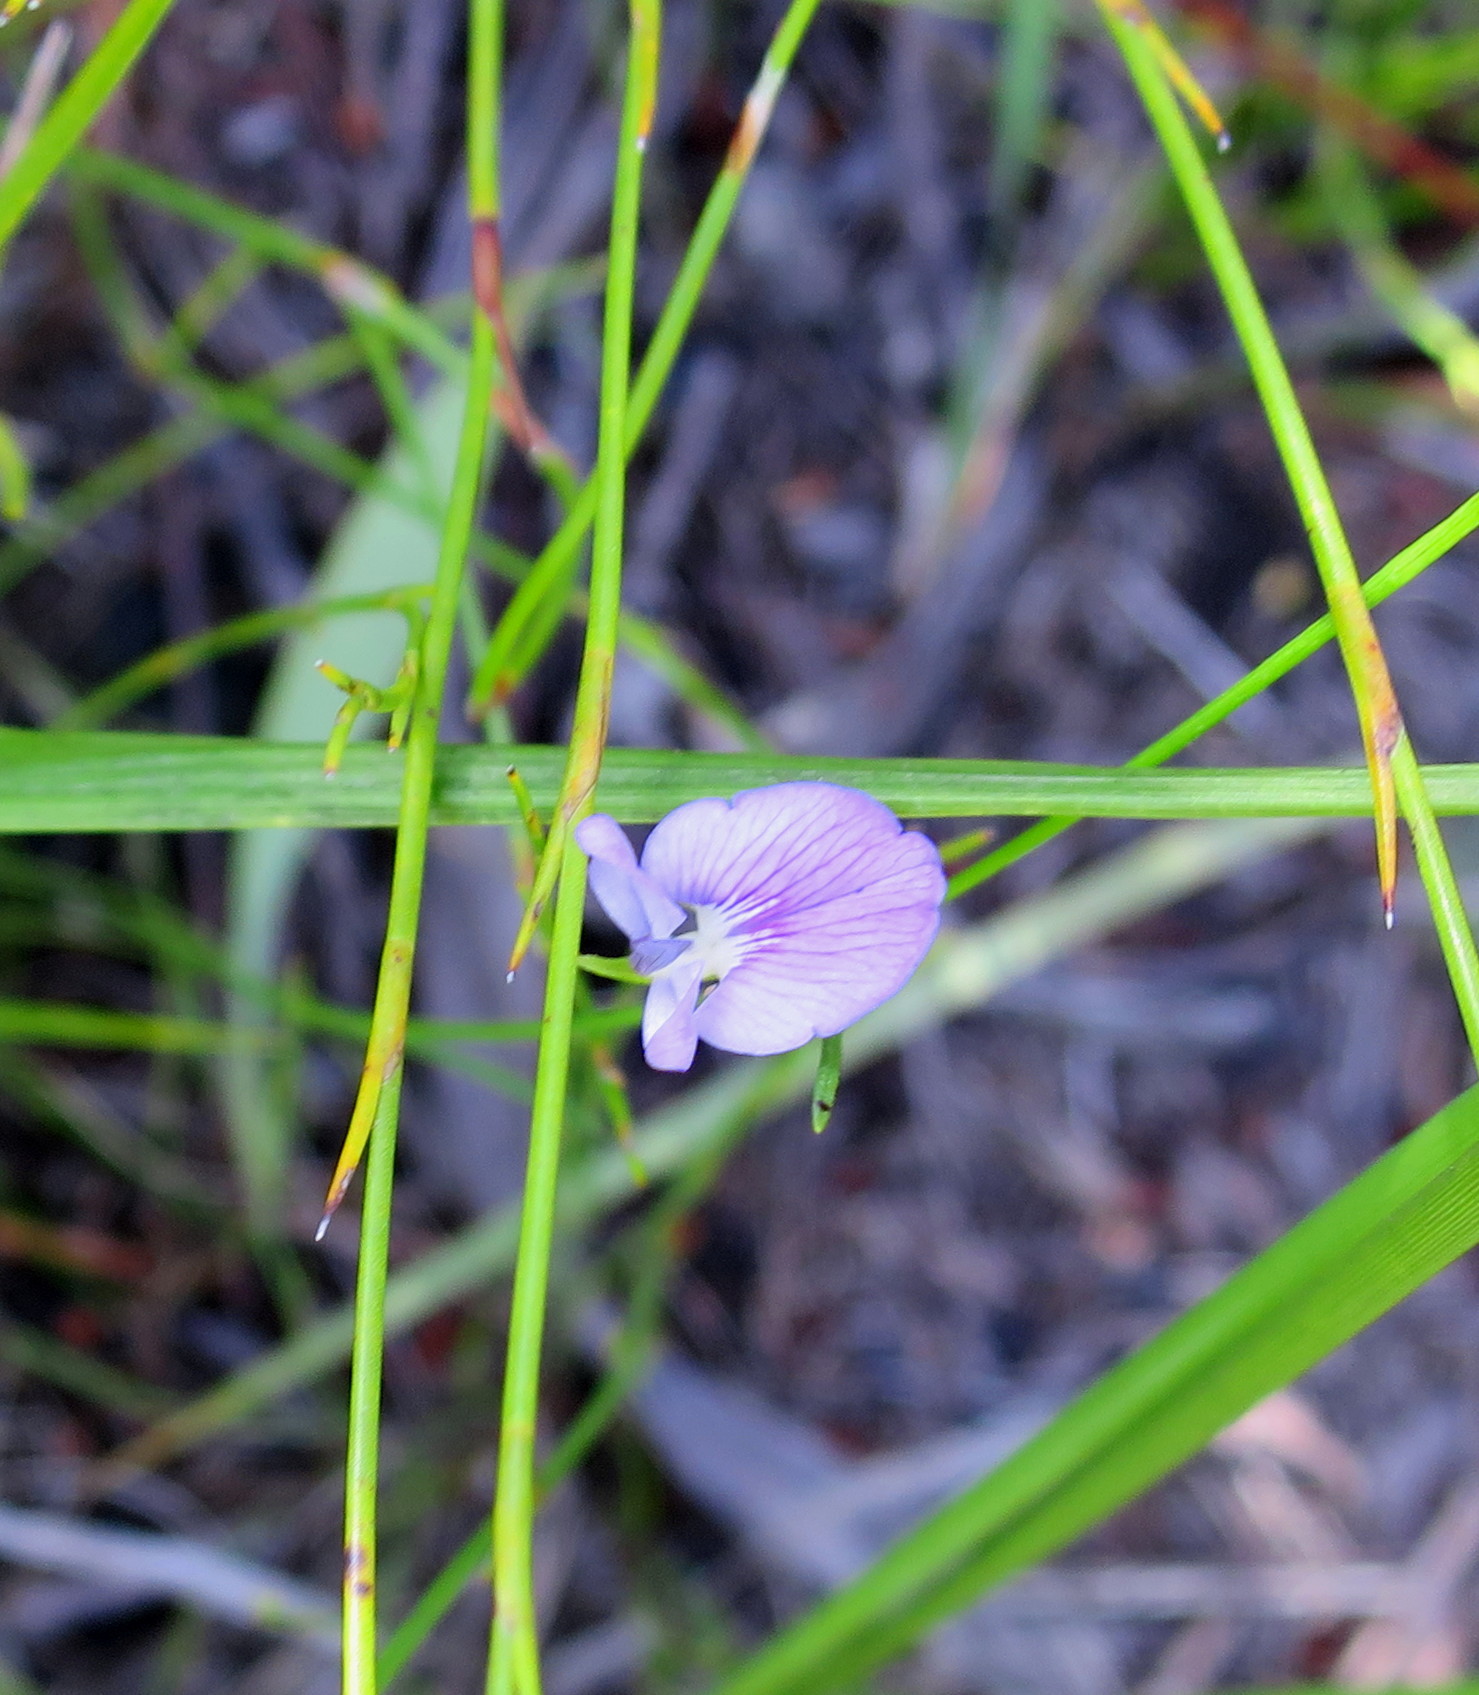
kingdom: Plantae
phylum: Tracheophyta
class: Magnoliopsida
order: Fabales
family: Fabaceae
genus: Psoralea
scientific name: Psoralea trullata
